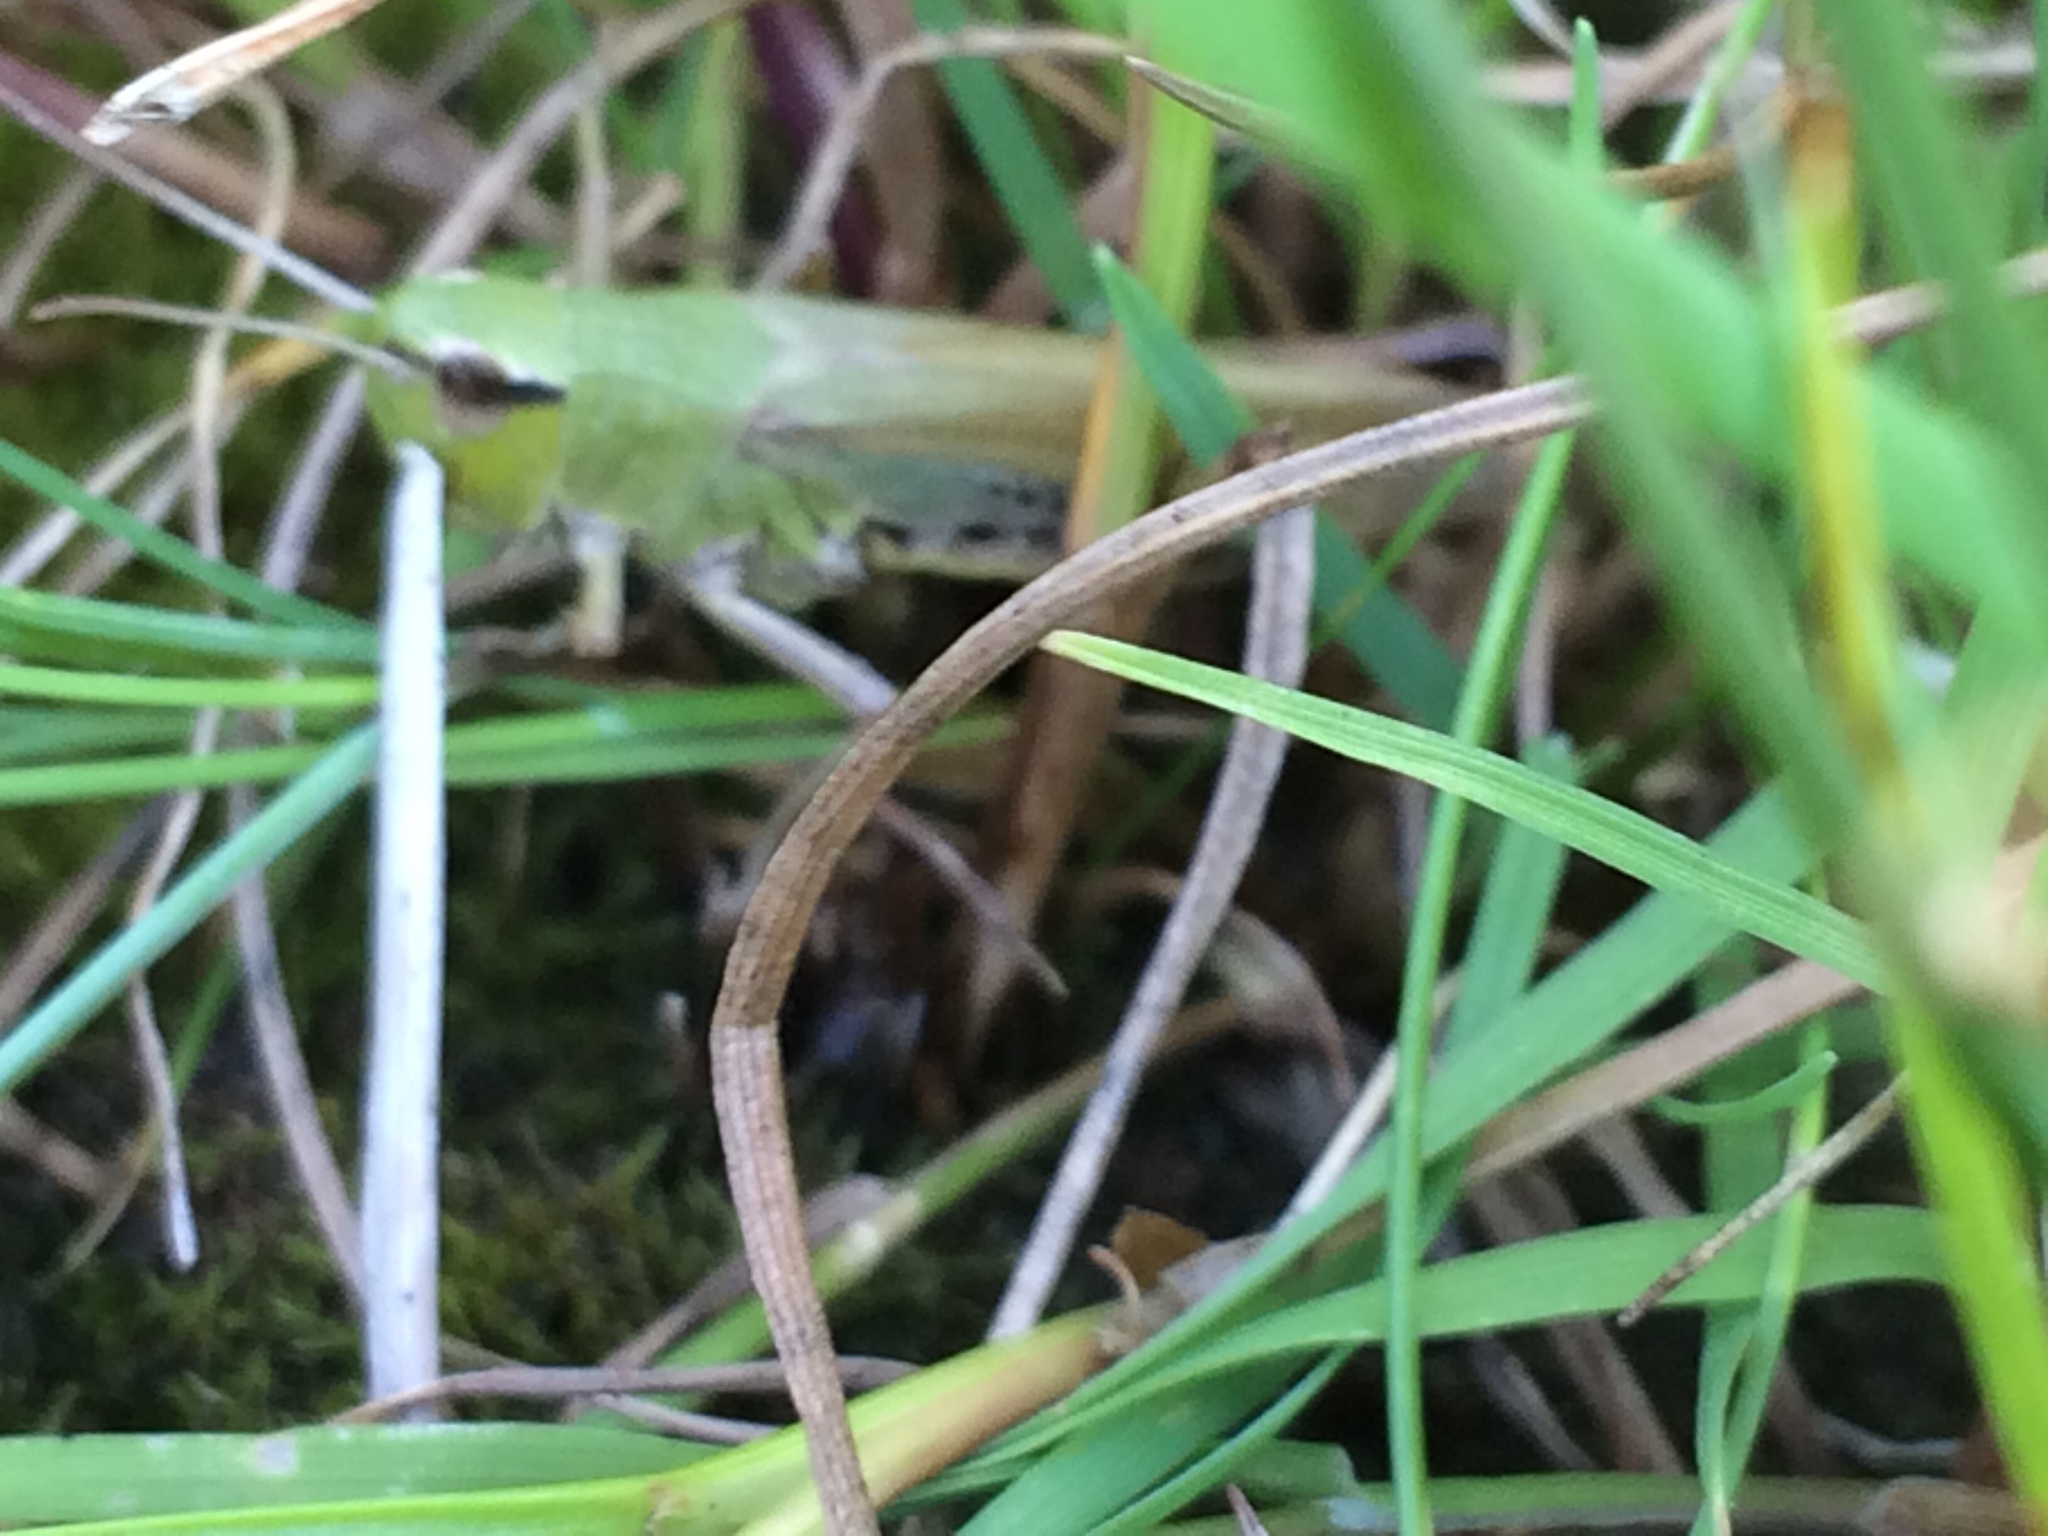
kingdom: Animalia
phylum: Arthropoda
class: Insecta
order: Orthoptera
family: Acrididae
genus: Pseudochorthippus
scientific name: Pseudochorthippus parallelus
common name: Meadow grasshopper
